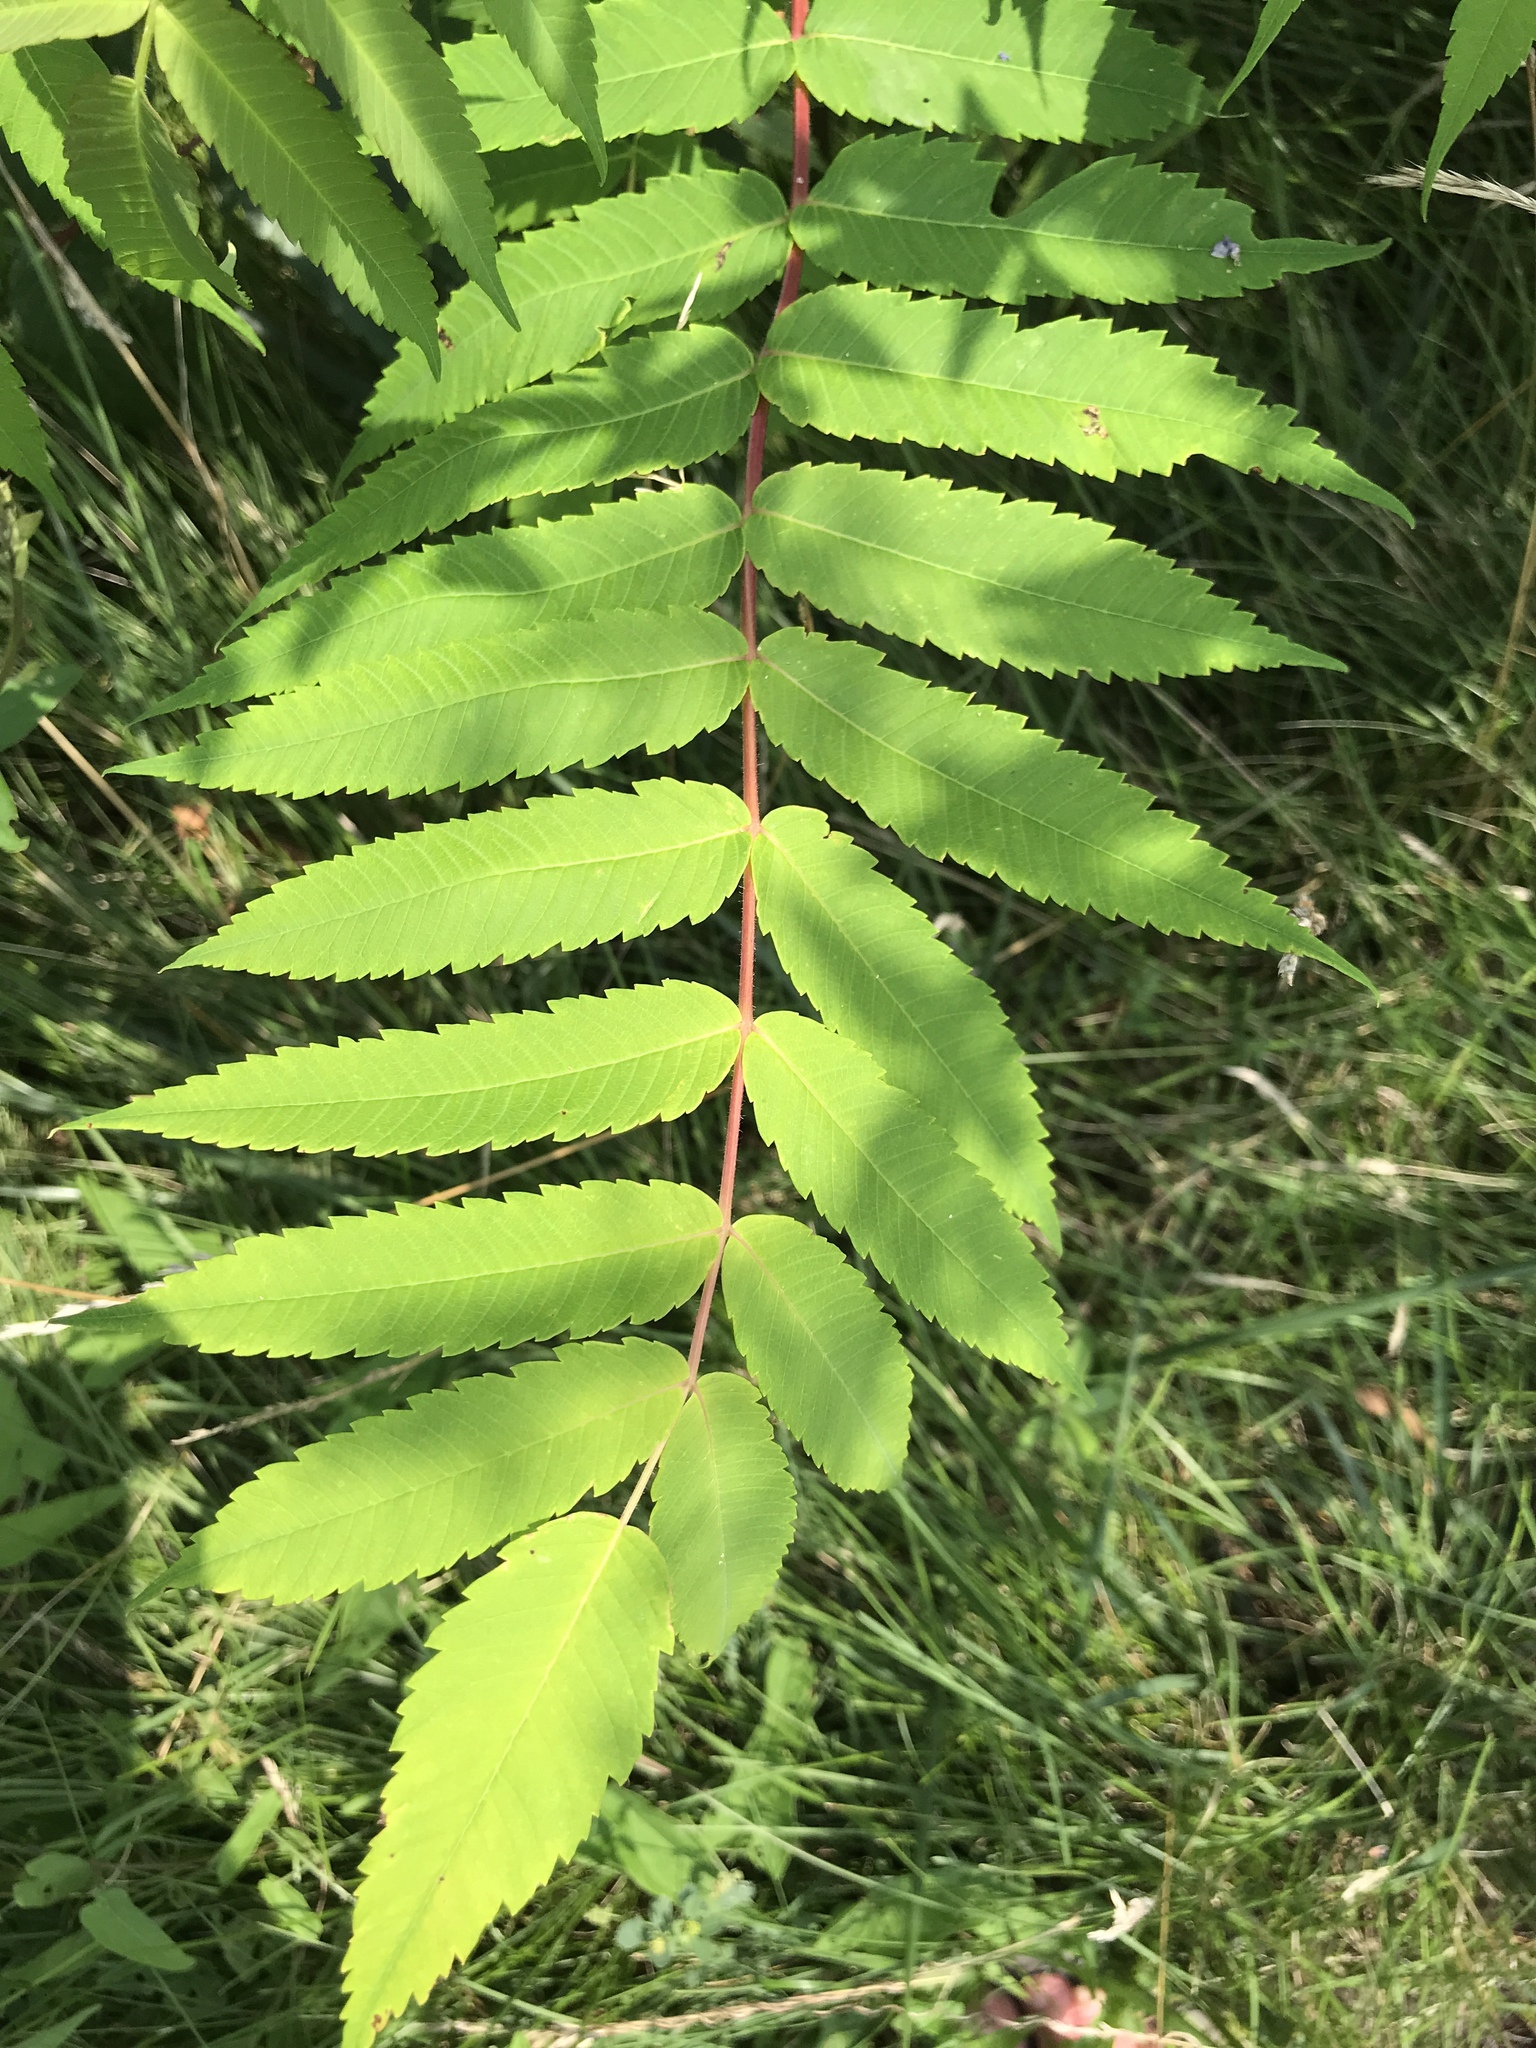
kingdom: Plantae
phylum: Tracheophyta
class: Magnoliopsida
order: Sapindales
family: Anacardiaceae
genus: Rhus
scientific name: Rhus typhina
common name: Staghorn sumac
